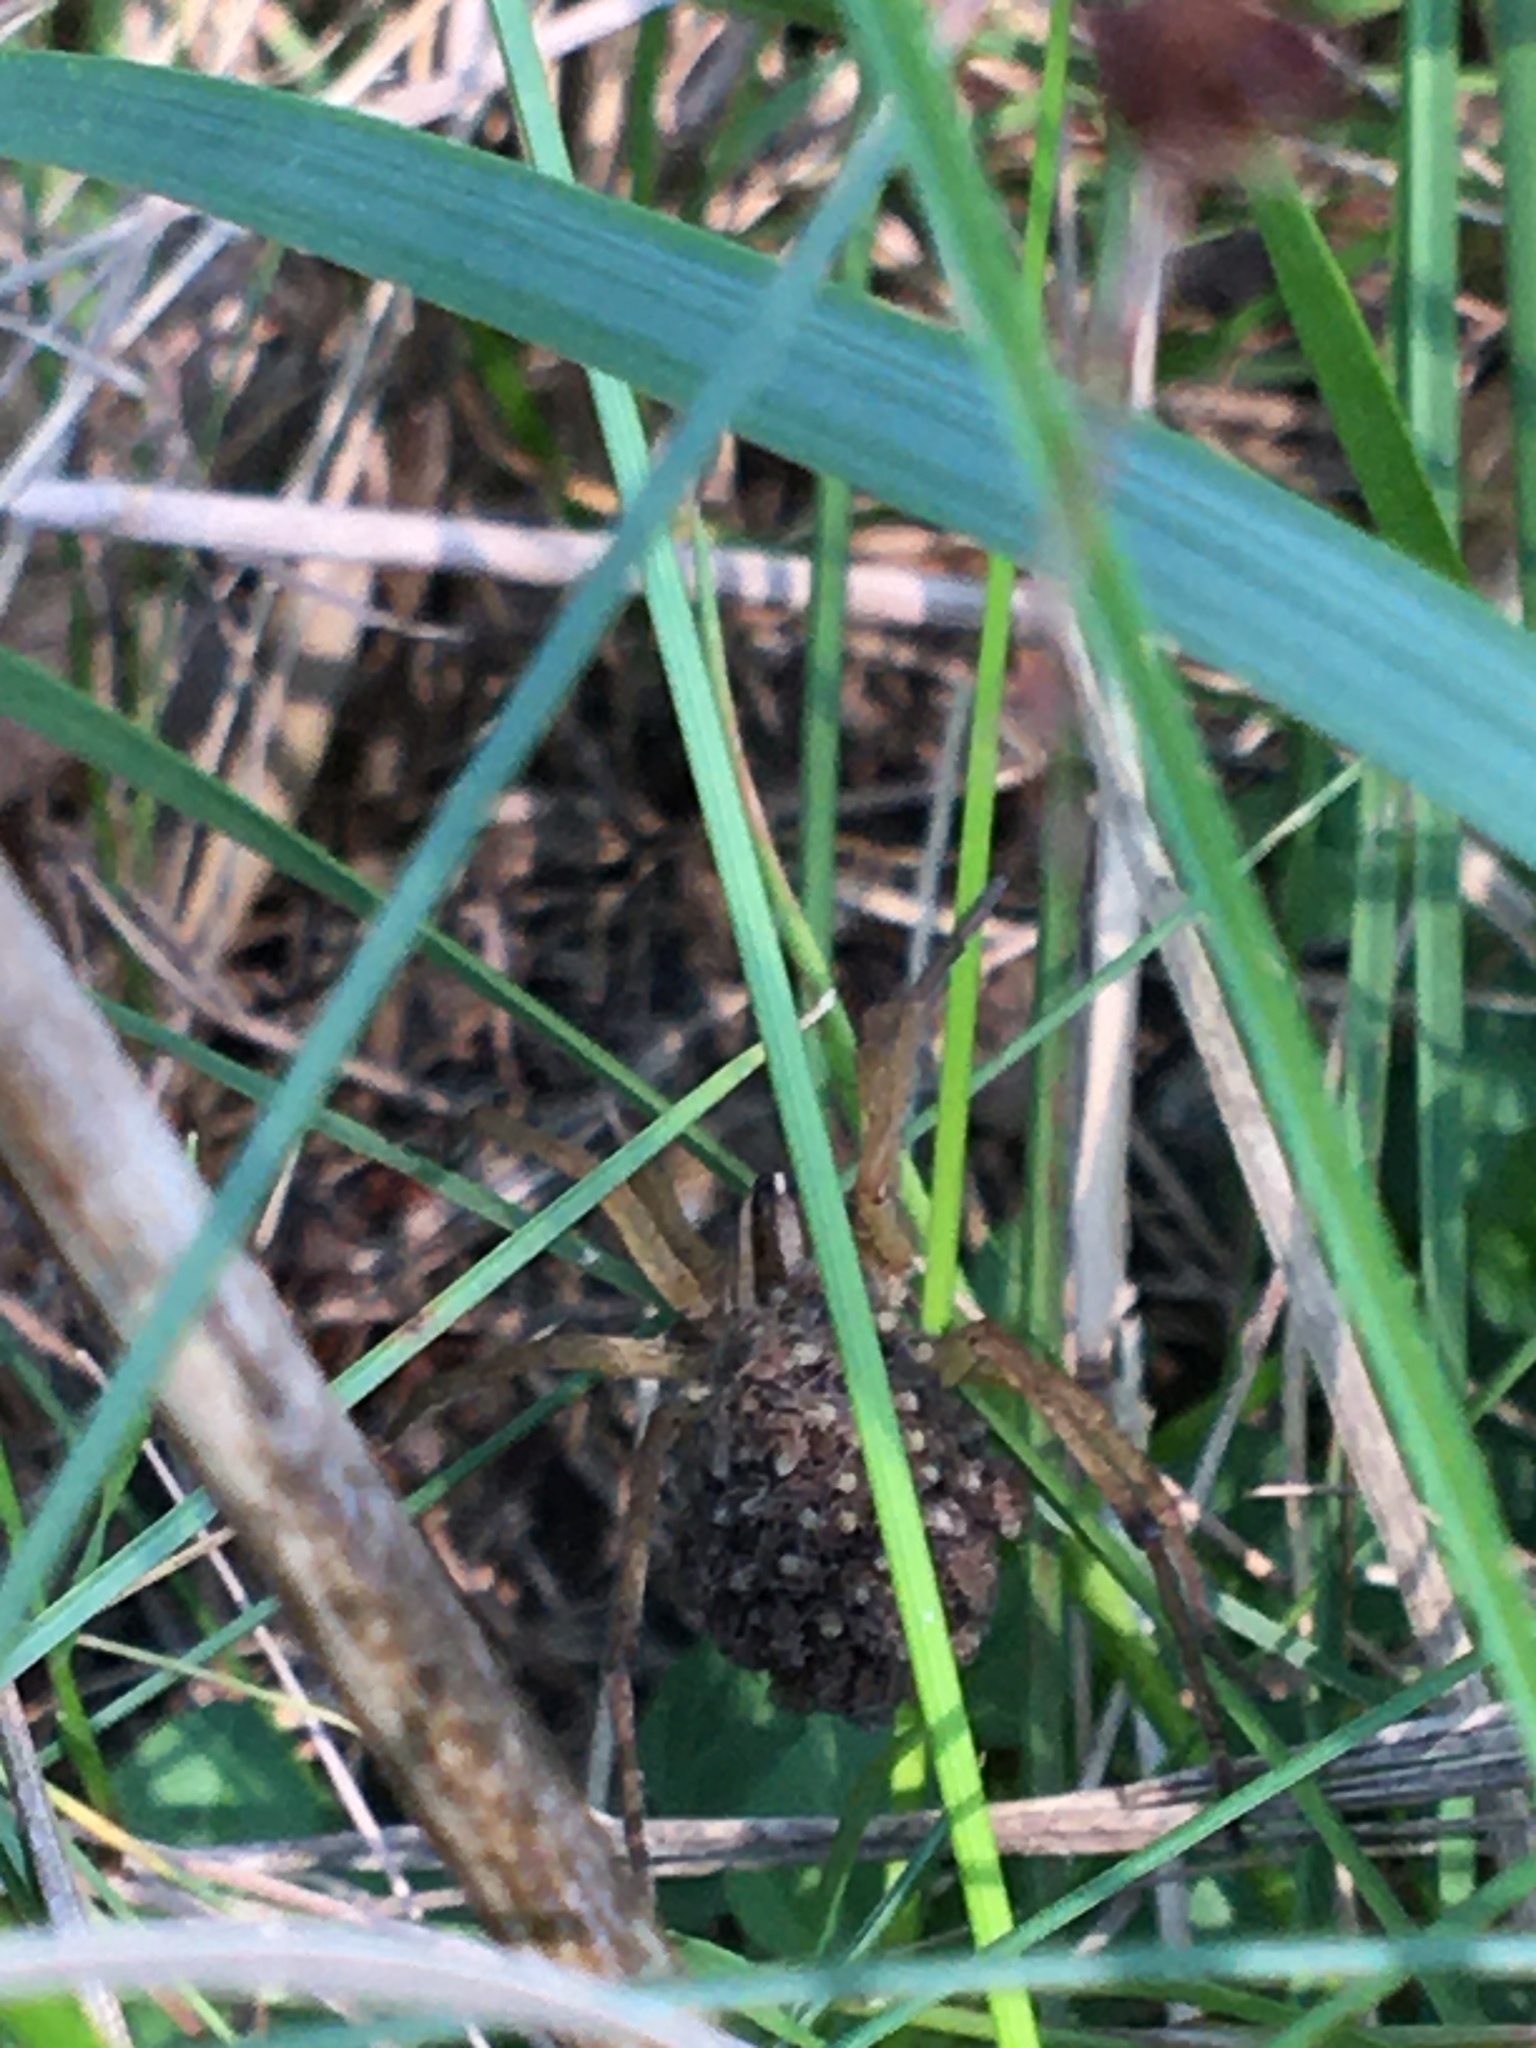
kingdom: Animalia
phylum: Arthropoda
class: Arachnida
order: Araneae
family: Lycosidae
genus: Rabidosa
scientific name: Rabidosa
